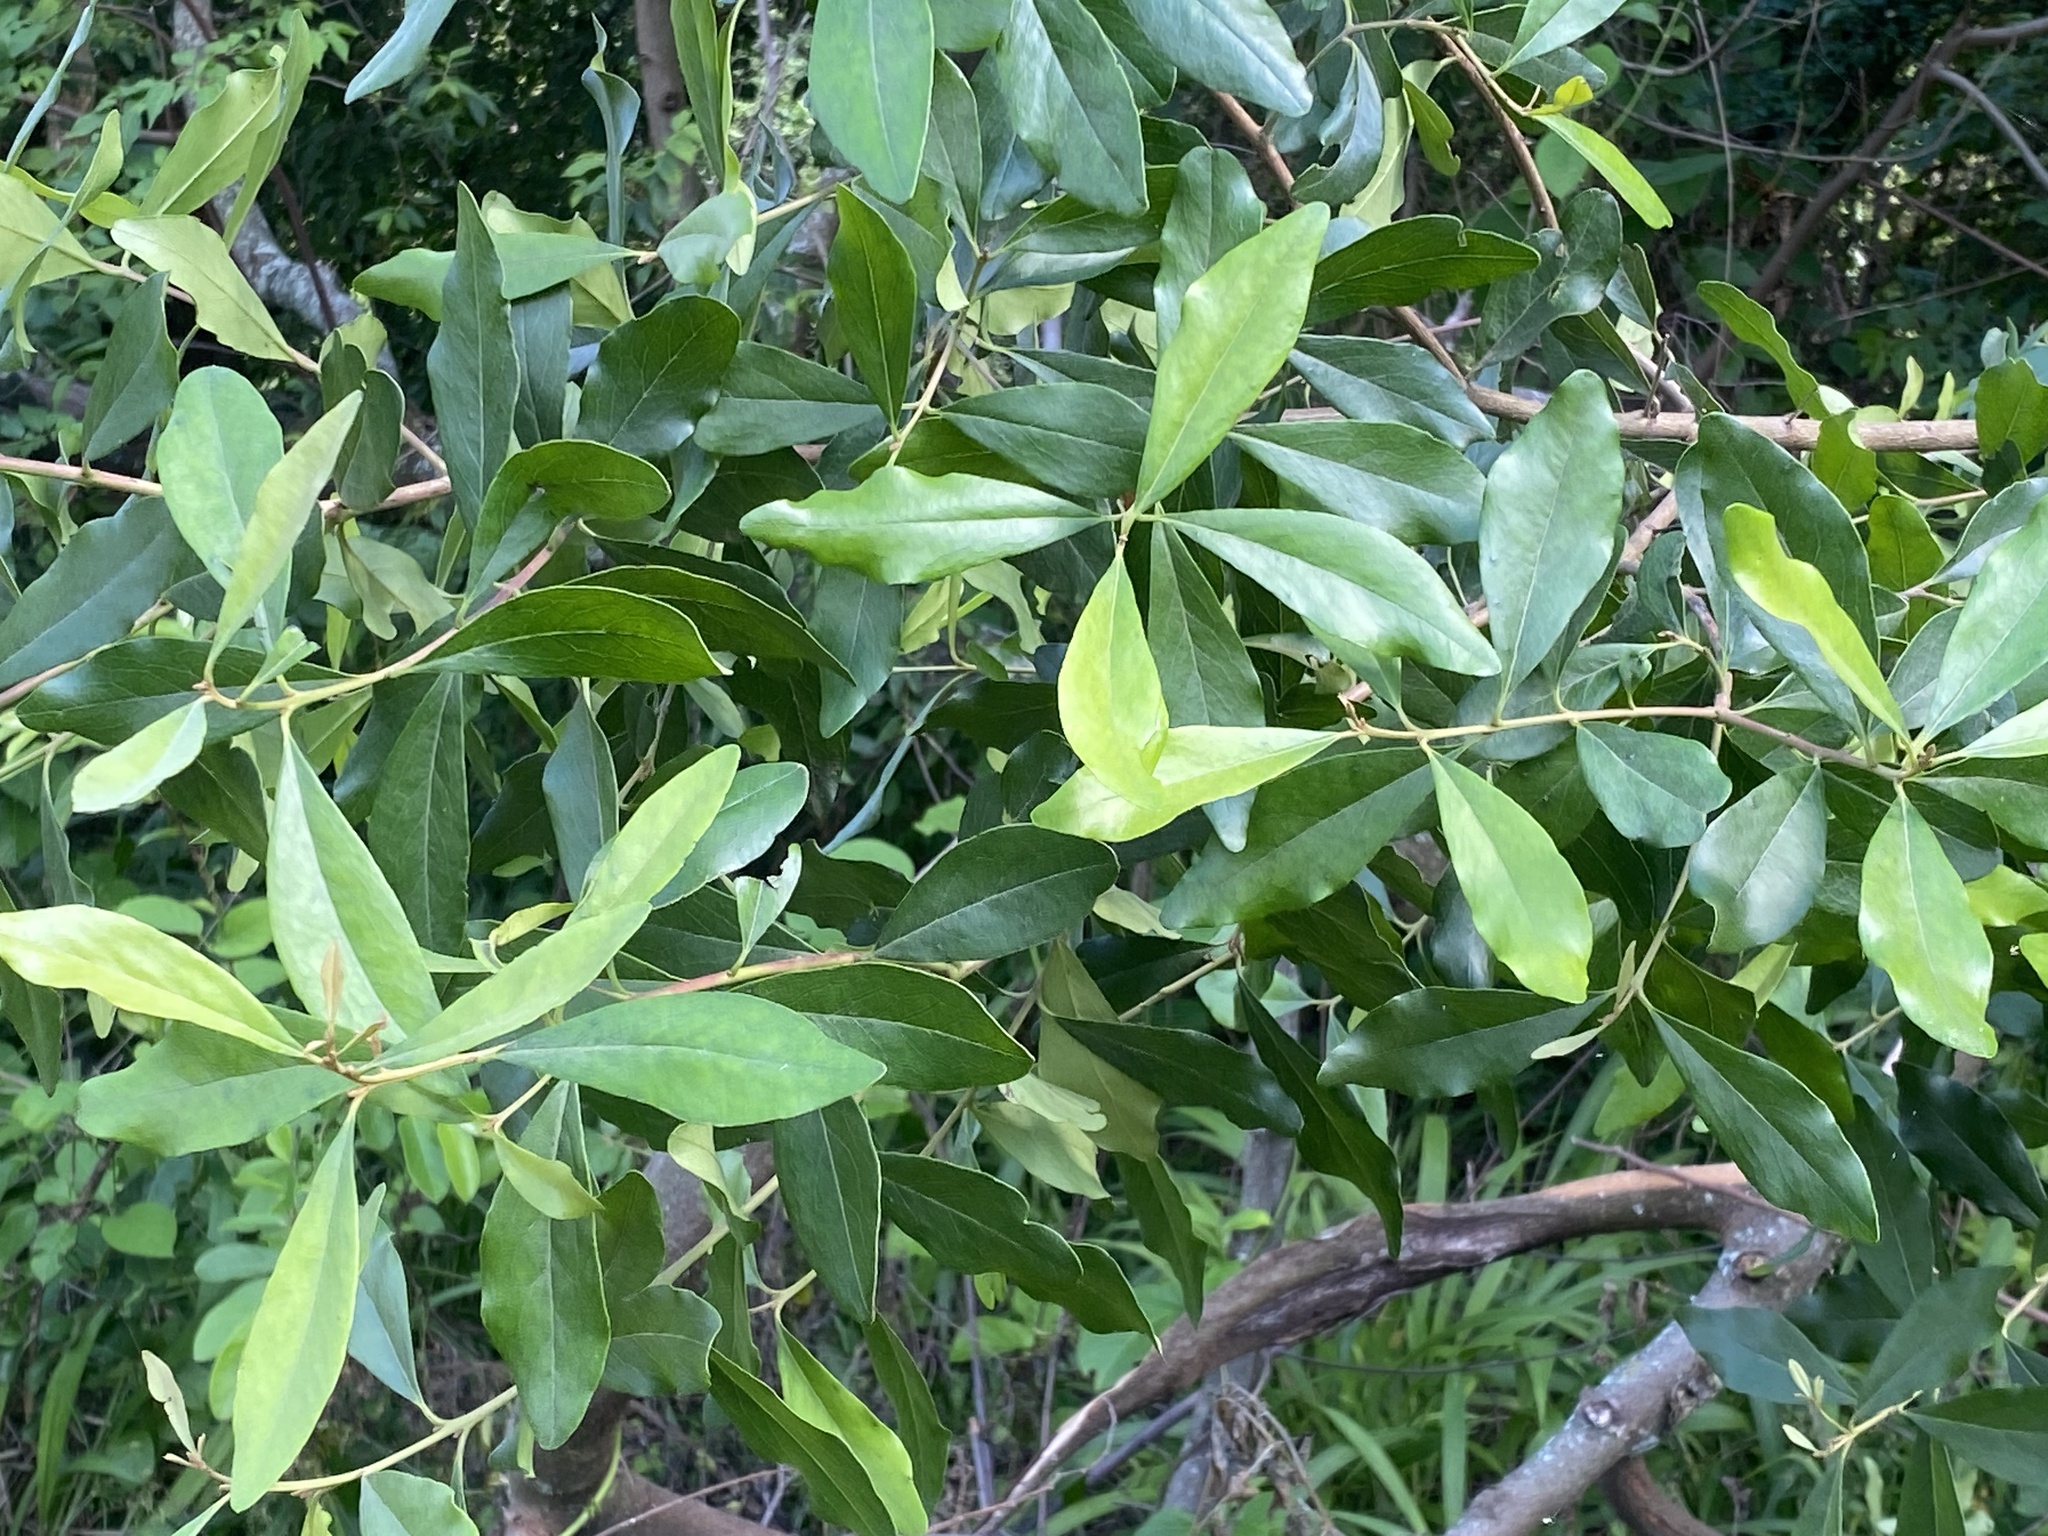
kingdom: Plantae
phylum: Tracheophyta
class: Magnoliopsida
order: Ericales
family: Ebenaceae
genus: Euclea
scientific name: Euclea crispa
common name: Blue guarri
